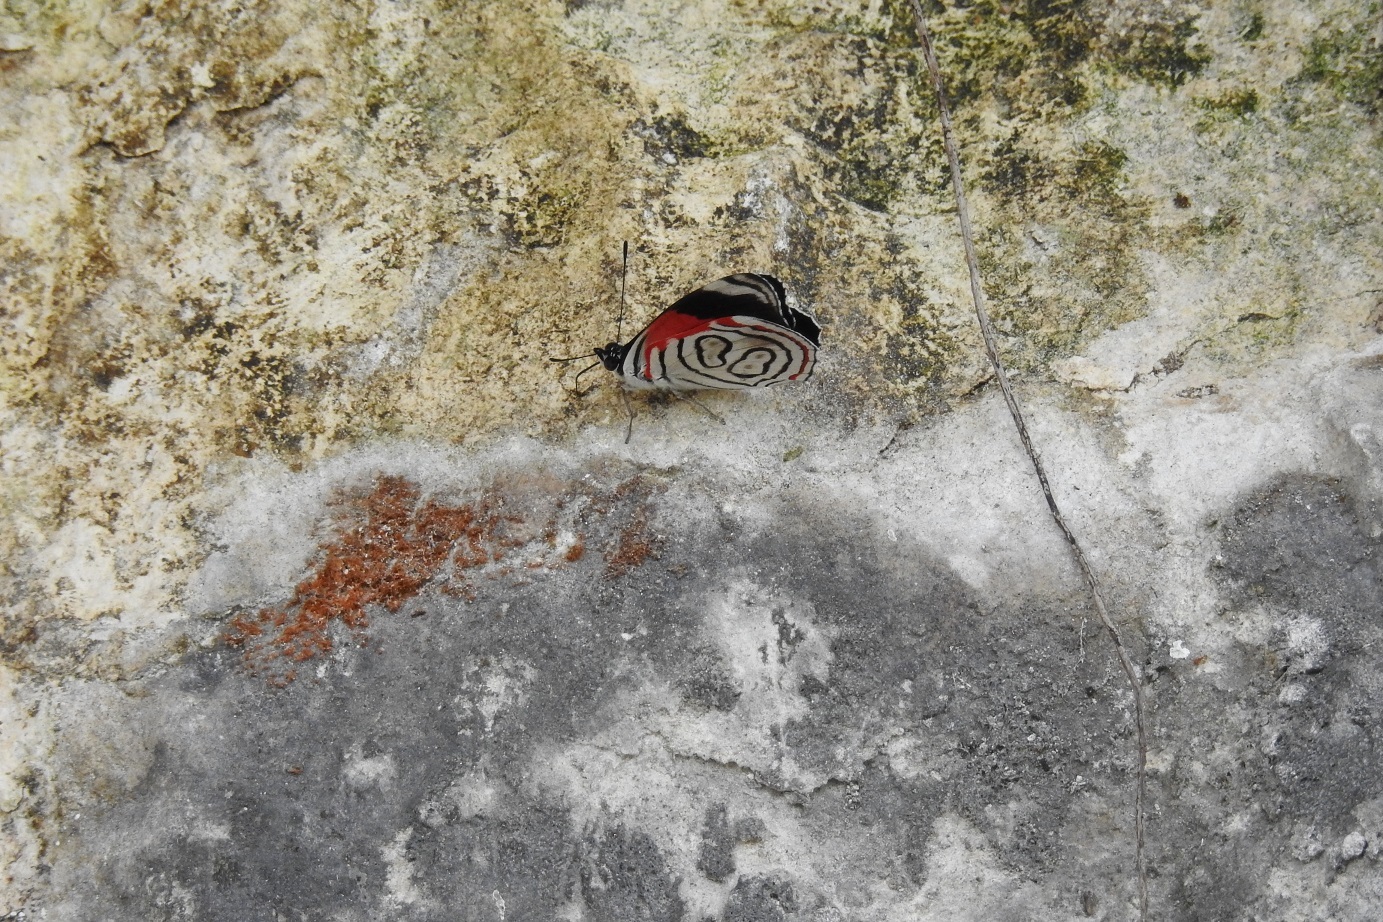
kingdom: Animalia
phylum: Arthropoda
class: Insecta
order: Lepidoptera
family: Nymphalidae
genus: Diaethria
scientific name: Diaethria astala
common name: Navy eighty-eight
